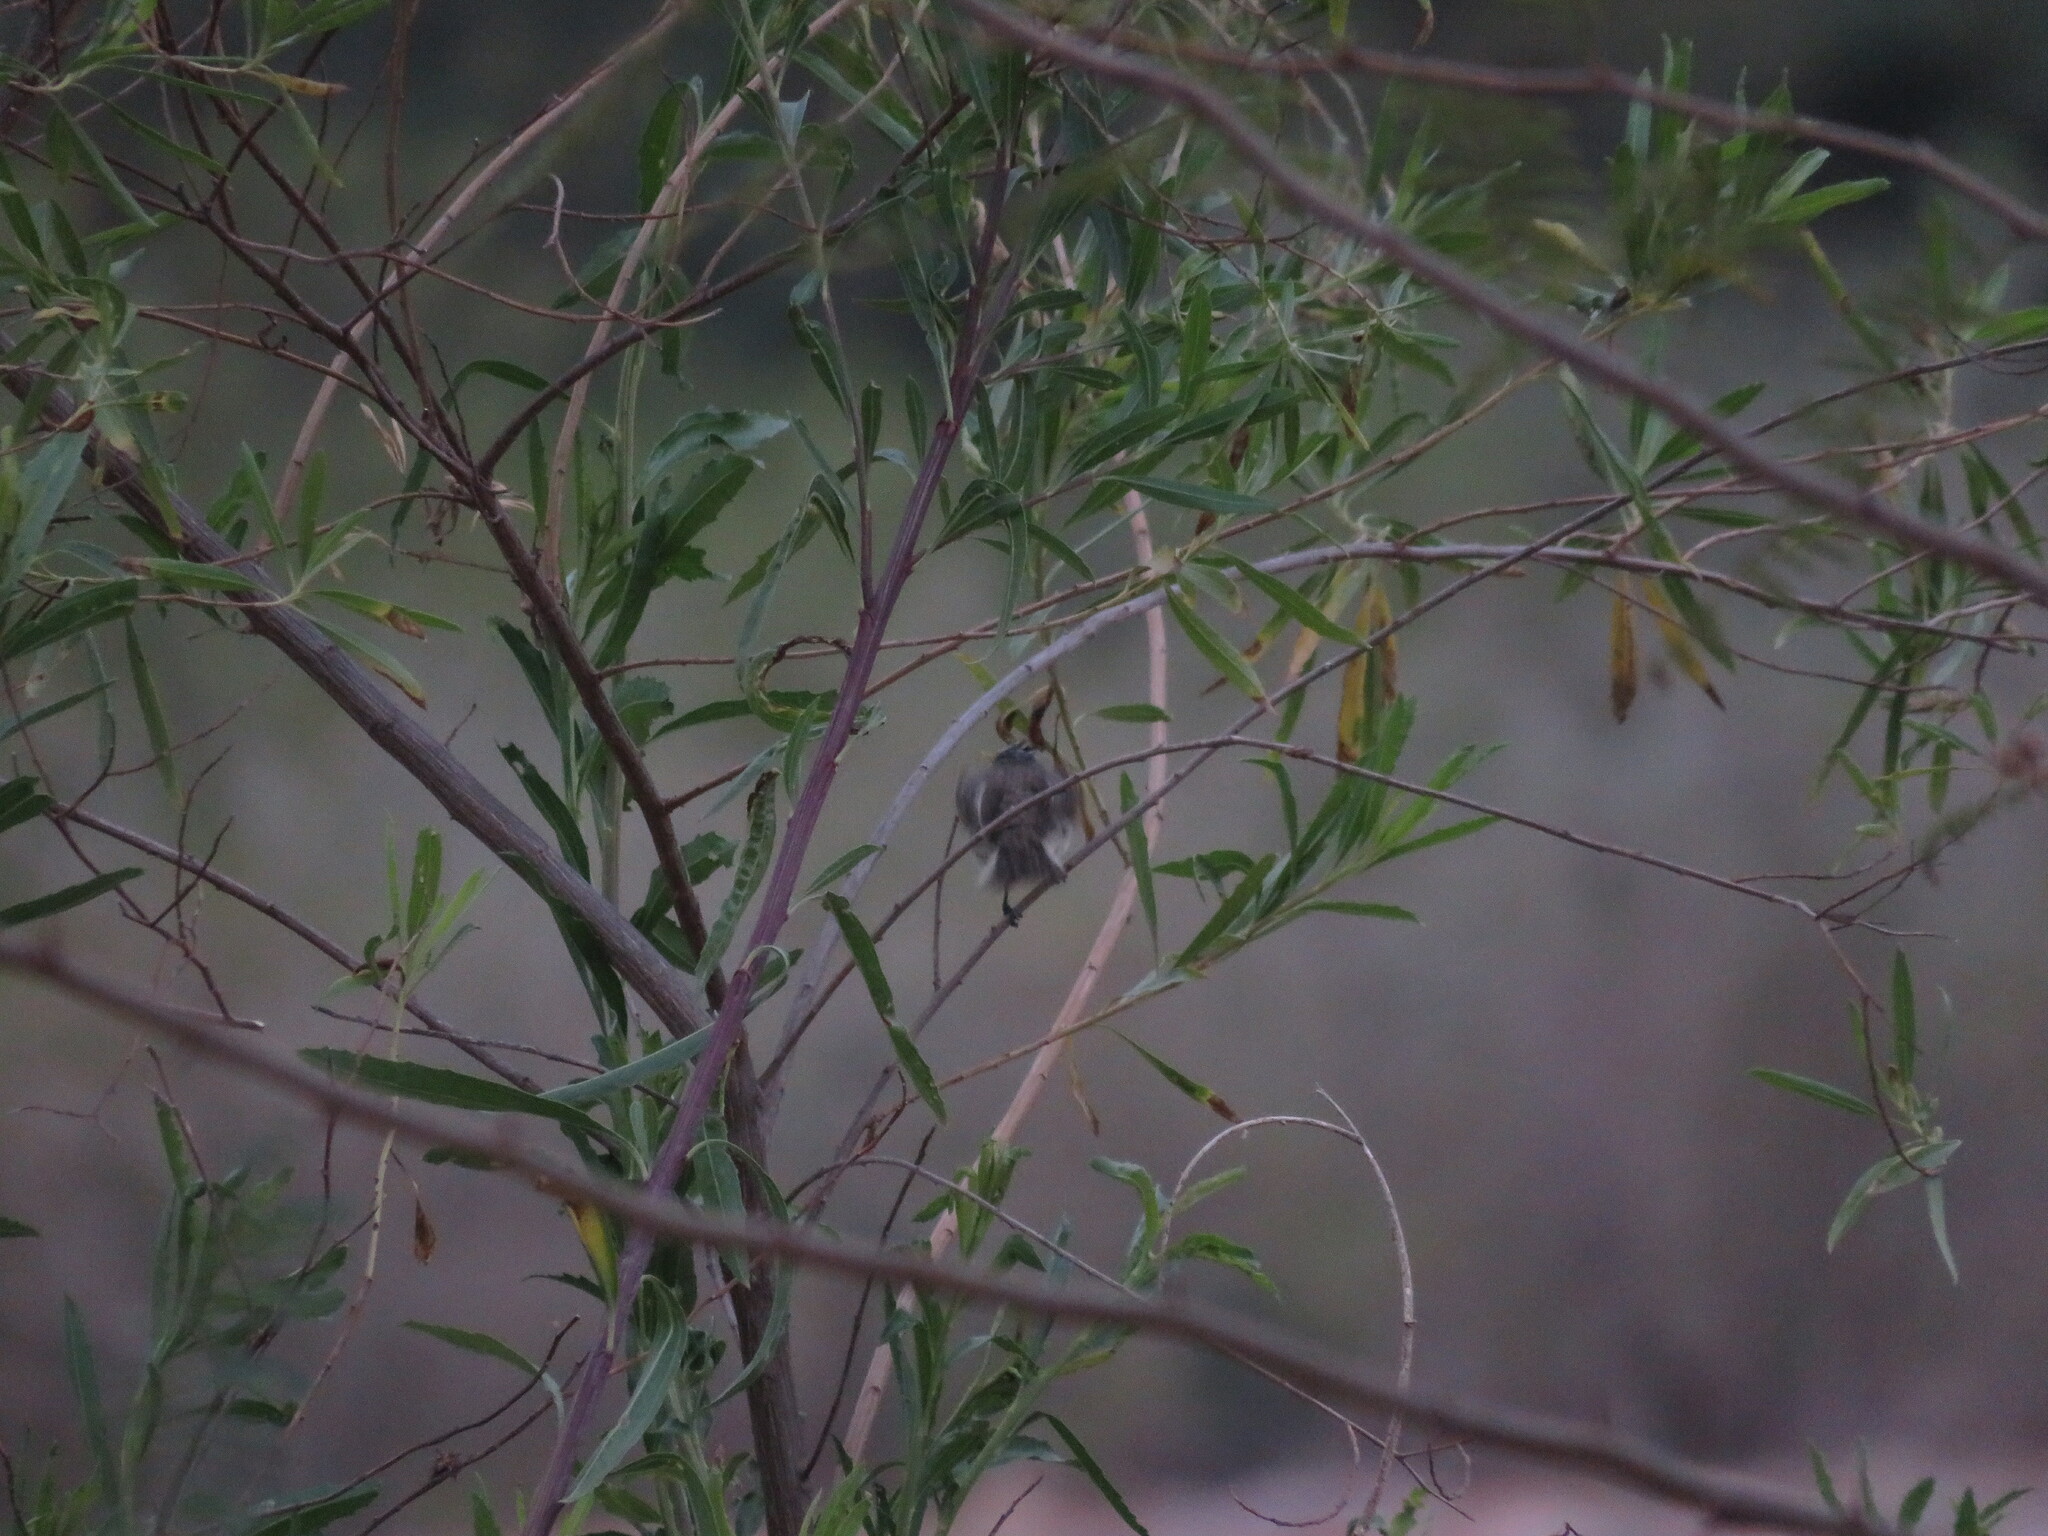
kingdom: Animalia
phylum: Chordata
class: Aves
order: Passeriformes
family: Tyrannidae
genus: Anairetes
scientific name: Anairetes flavirostris
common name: Yellow-billed tit-tyrant
